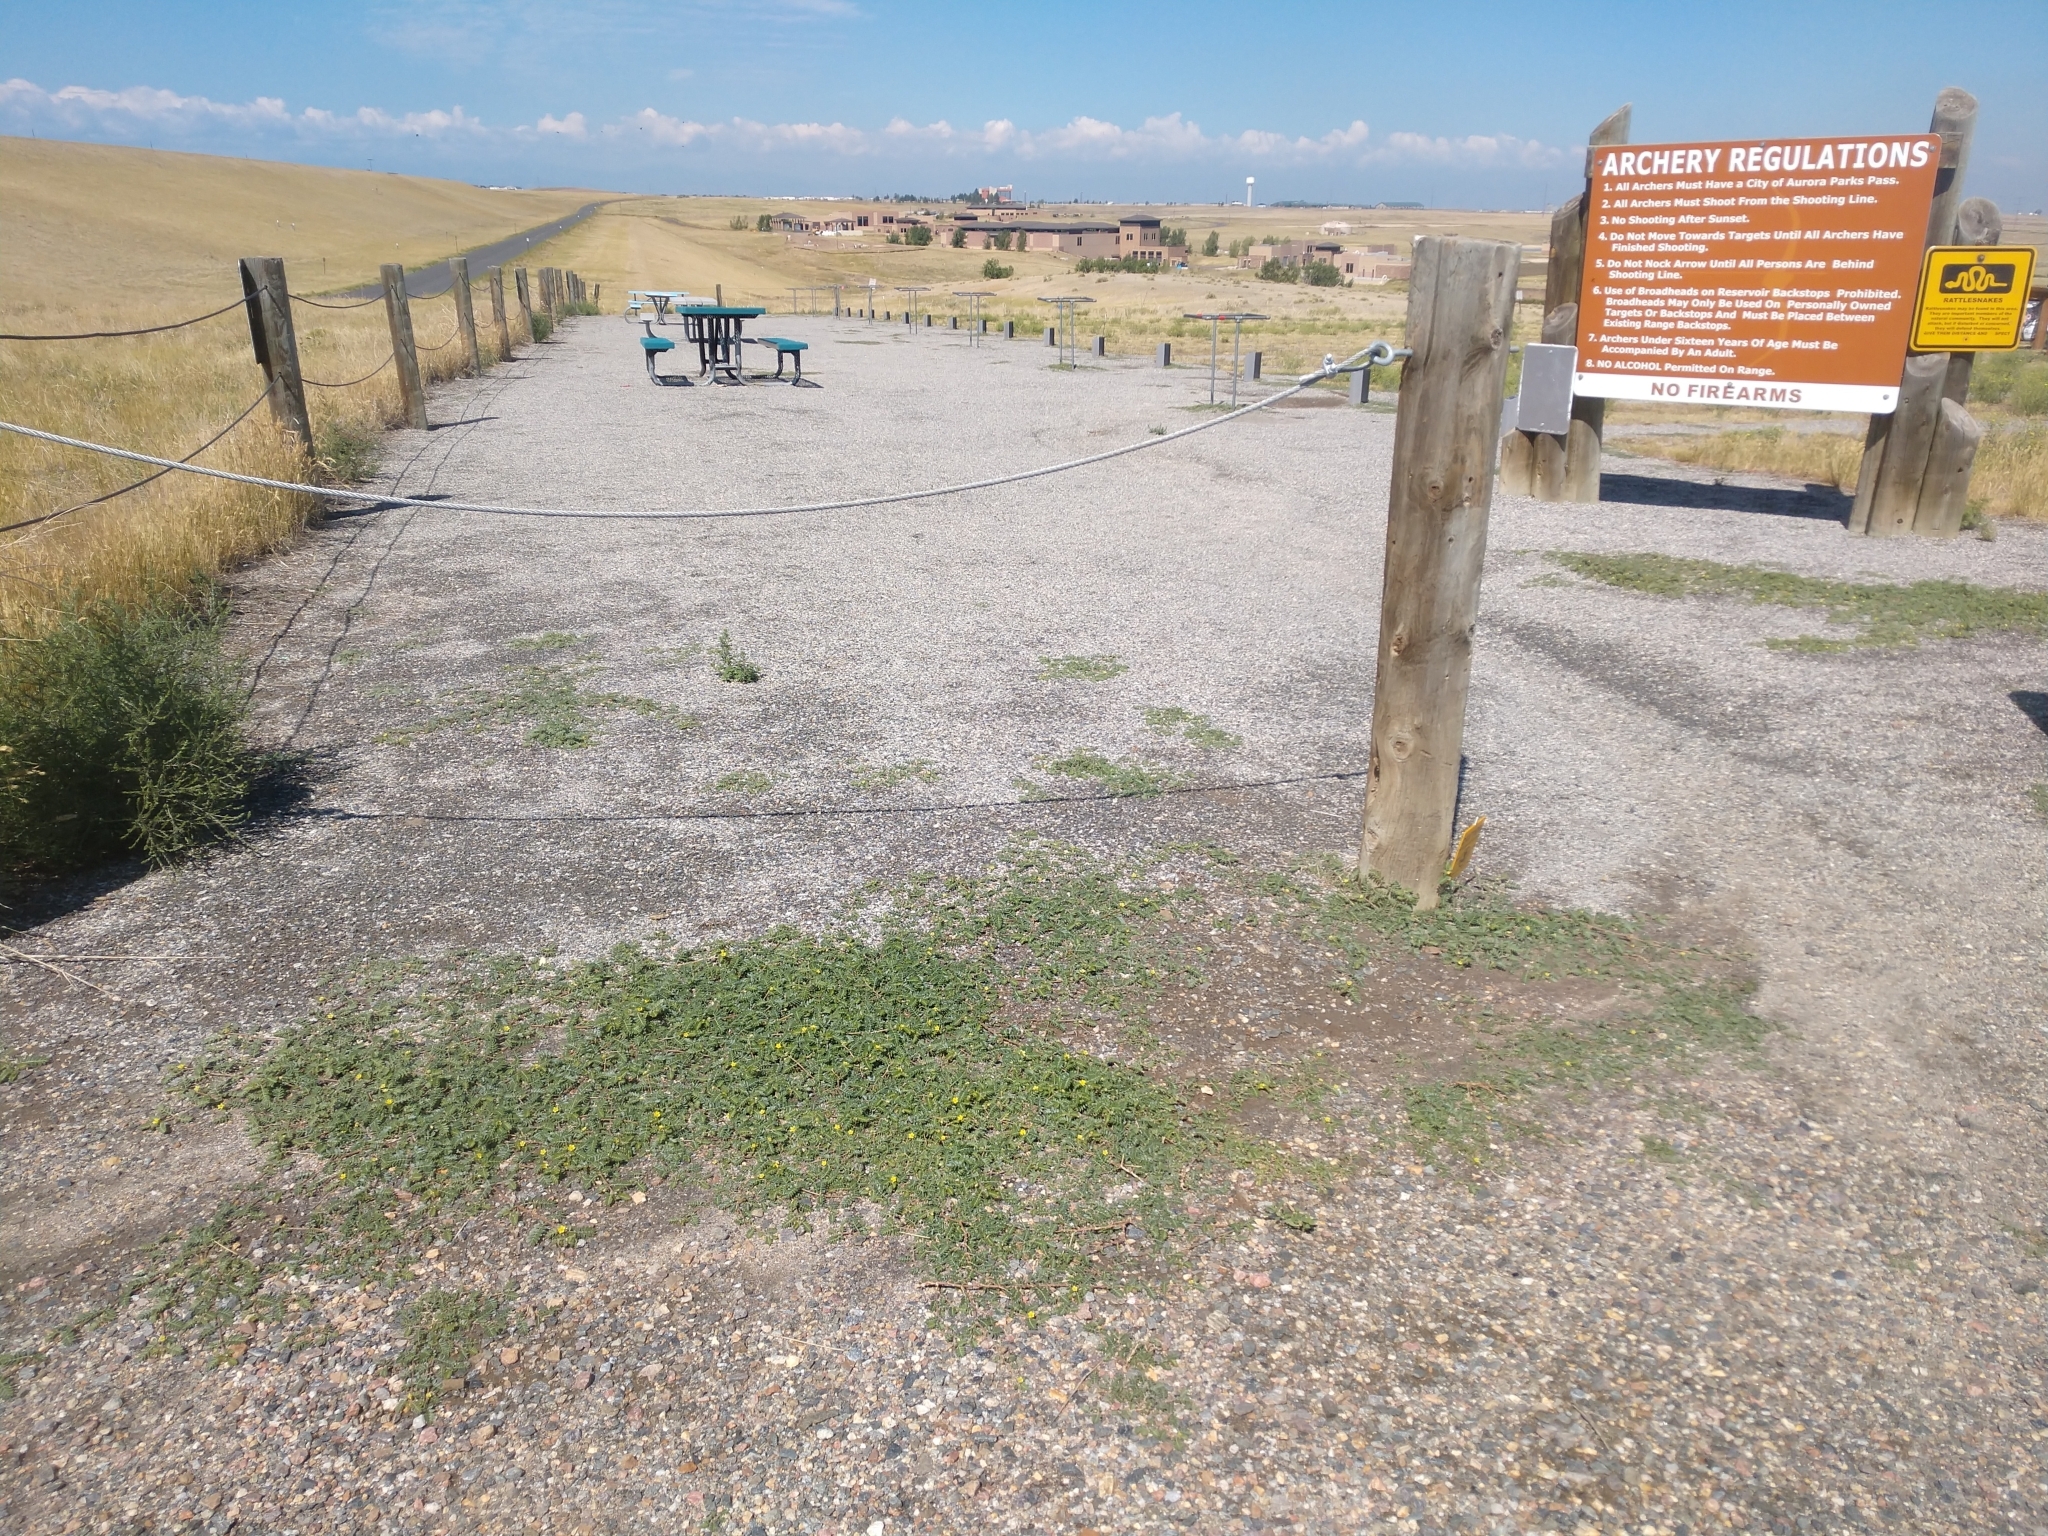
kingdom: Plantae
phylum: Tracheophyta
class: Magnoliopsida
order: Zygophyllales
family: Zygophyllaceae
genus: Tribulus
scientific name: Tribulus terrestris
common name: Puncturevine
